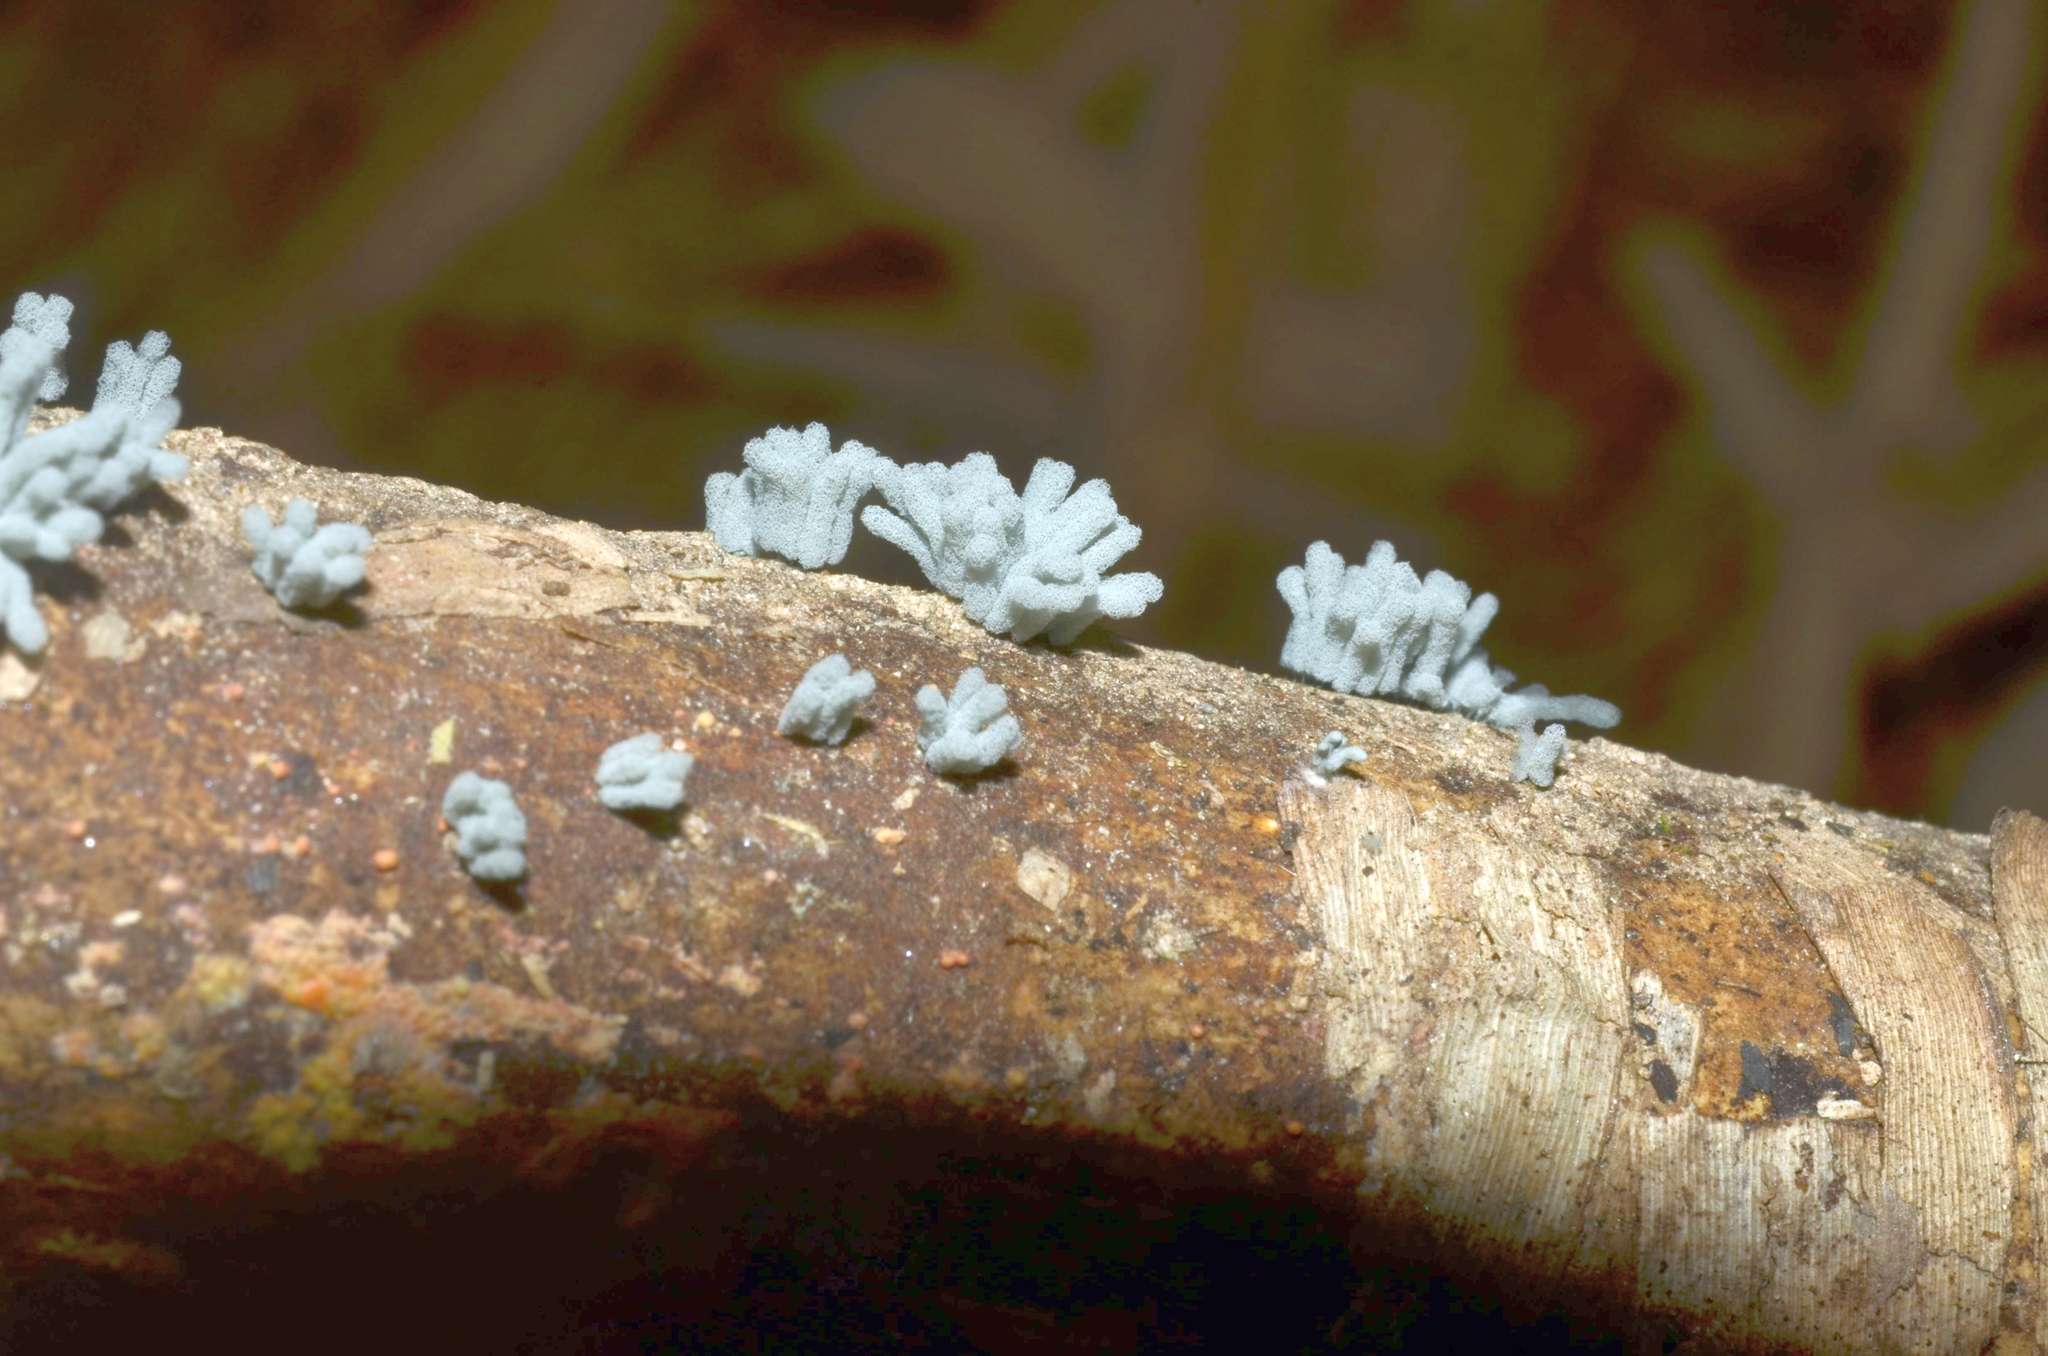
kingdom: Protozoa
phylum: Mycetozoa
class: Myxomycetes
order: Trichiales
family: Arcyriaceae
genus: Arcyria
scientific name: Arcyria glauca
